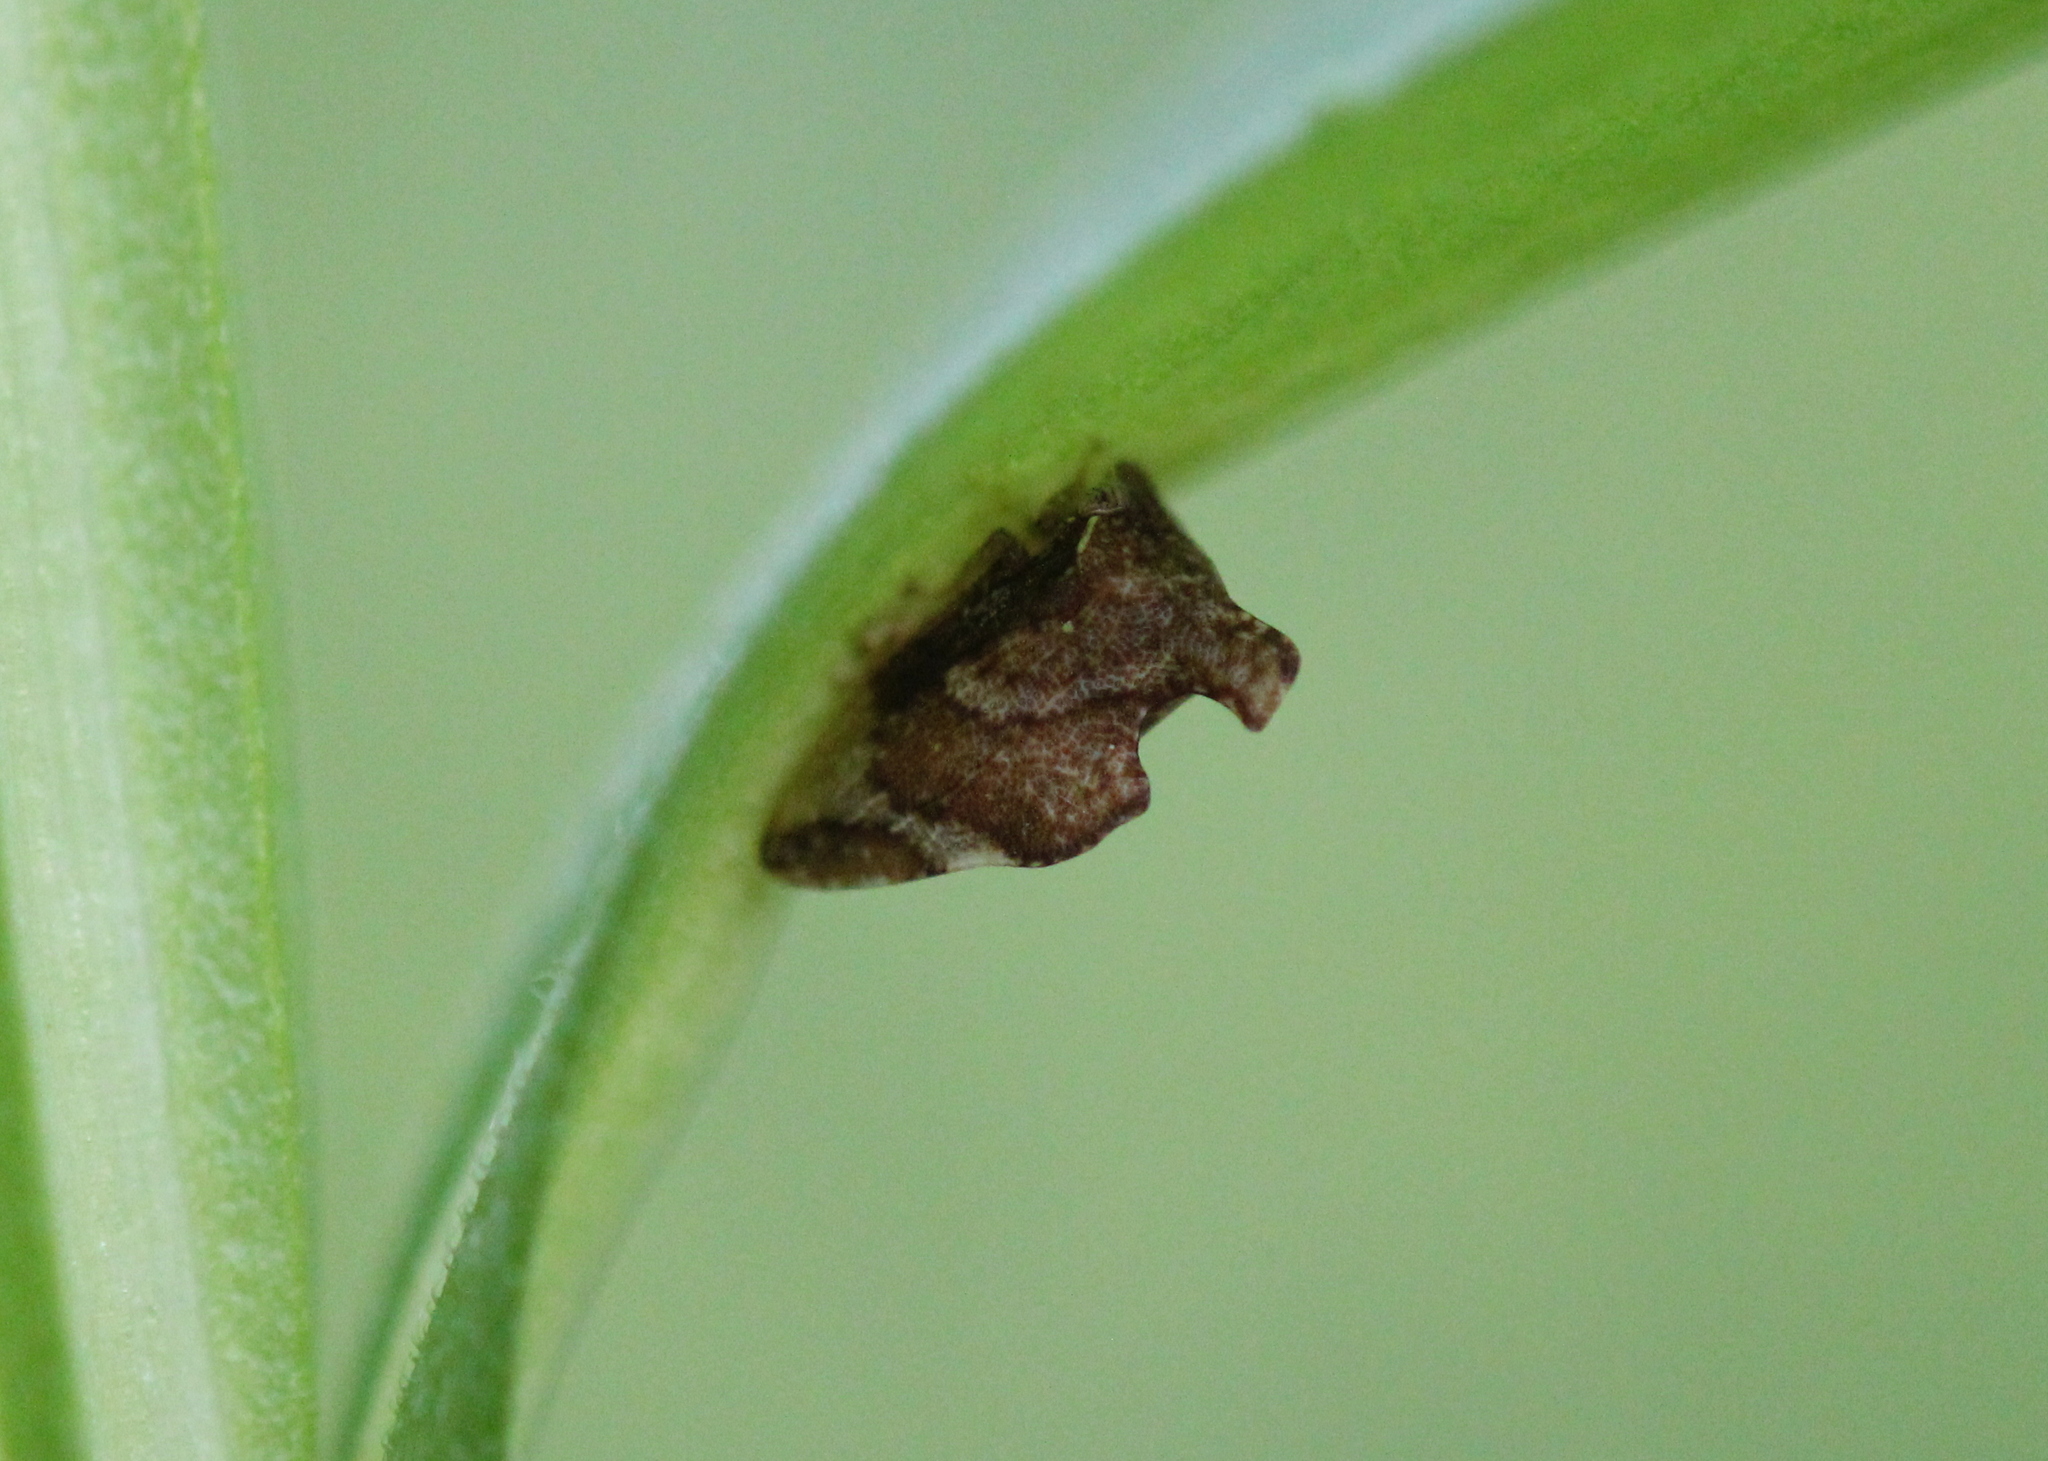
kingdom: Animalia
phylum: Arthropoda
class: Insecta
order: Hemiptera
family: Membracidae
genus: Entylia
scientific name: Entylia carinata
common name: Keeled treehopper
